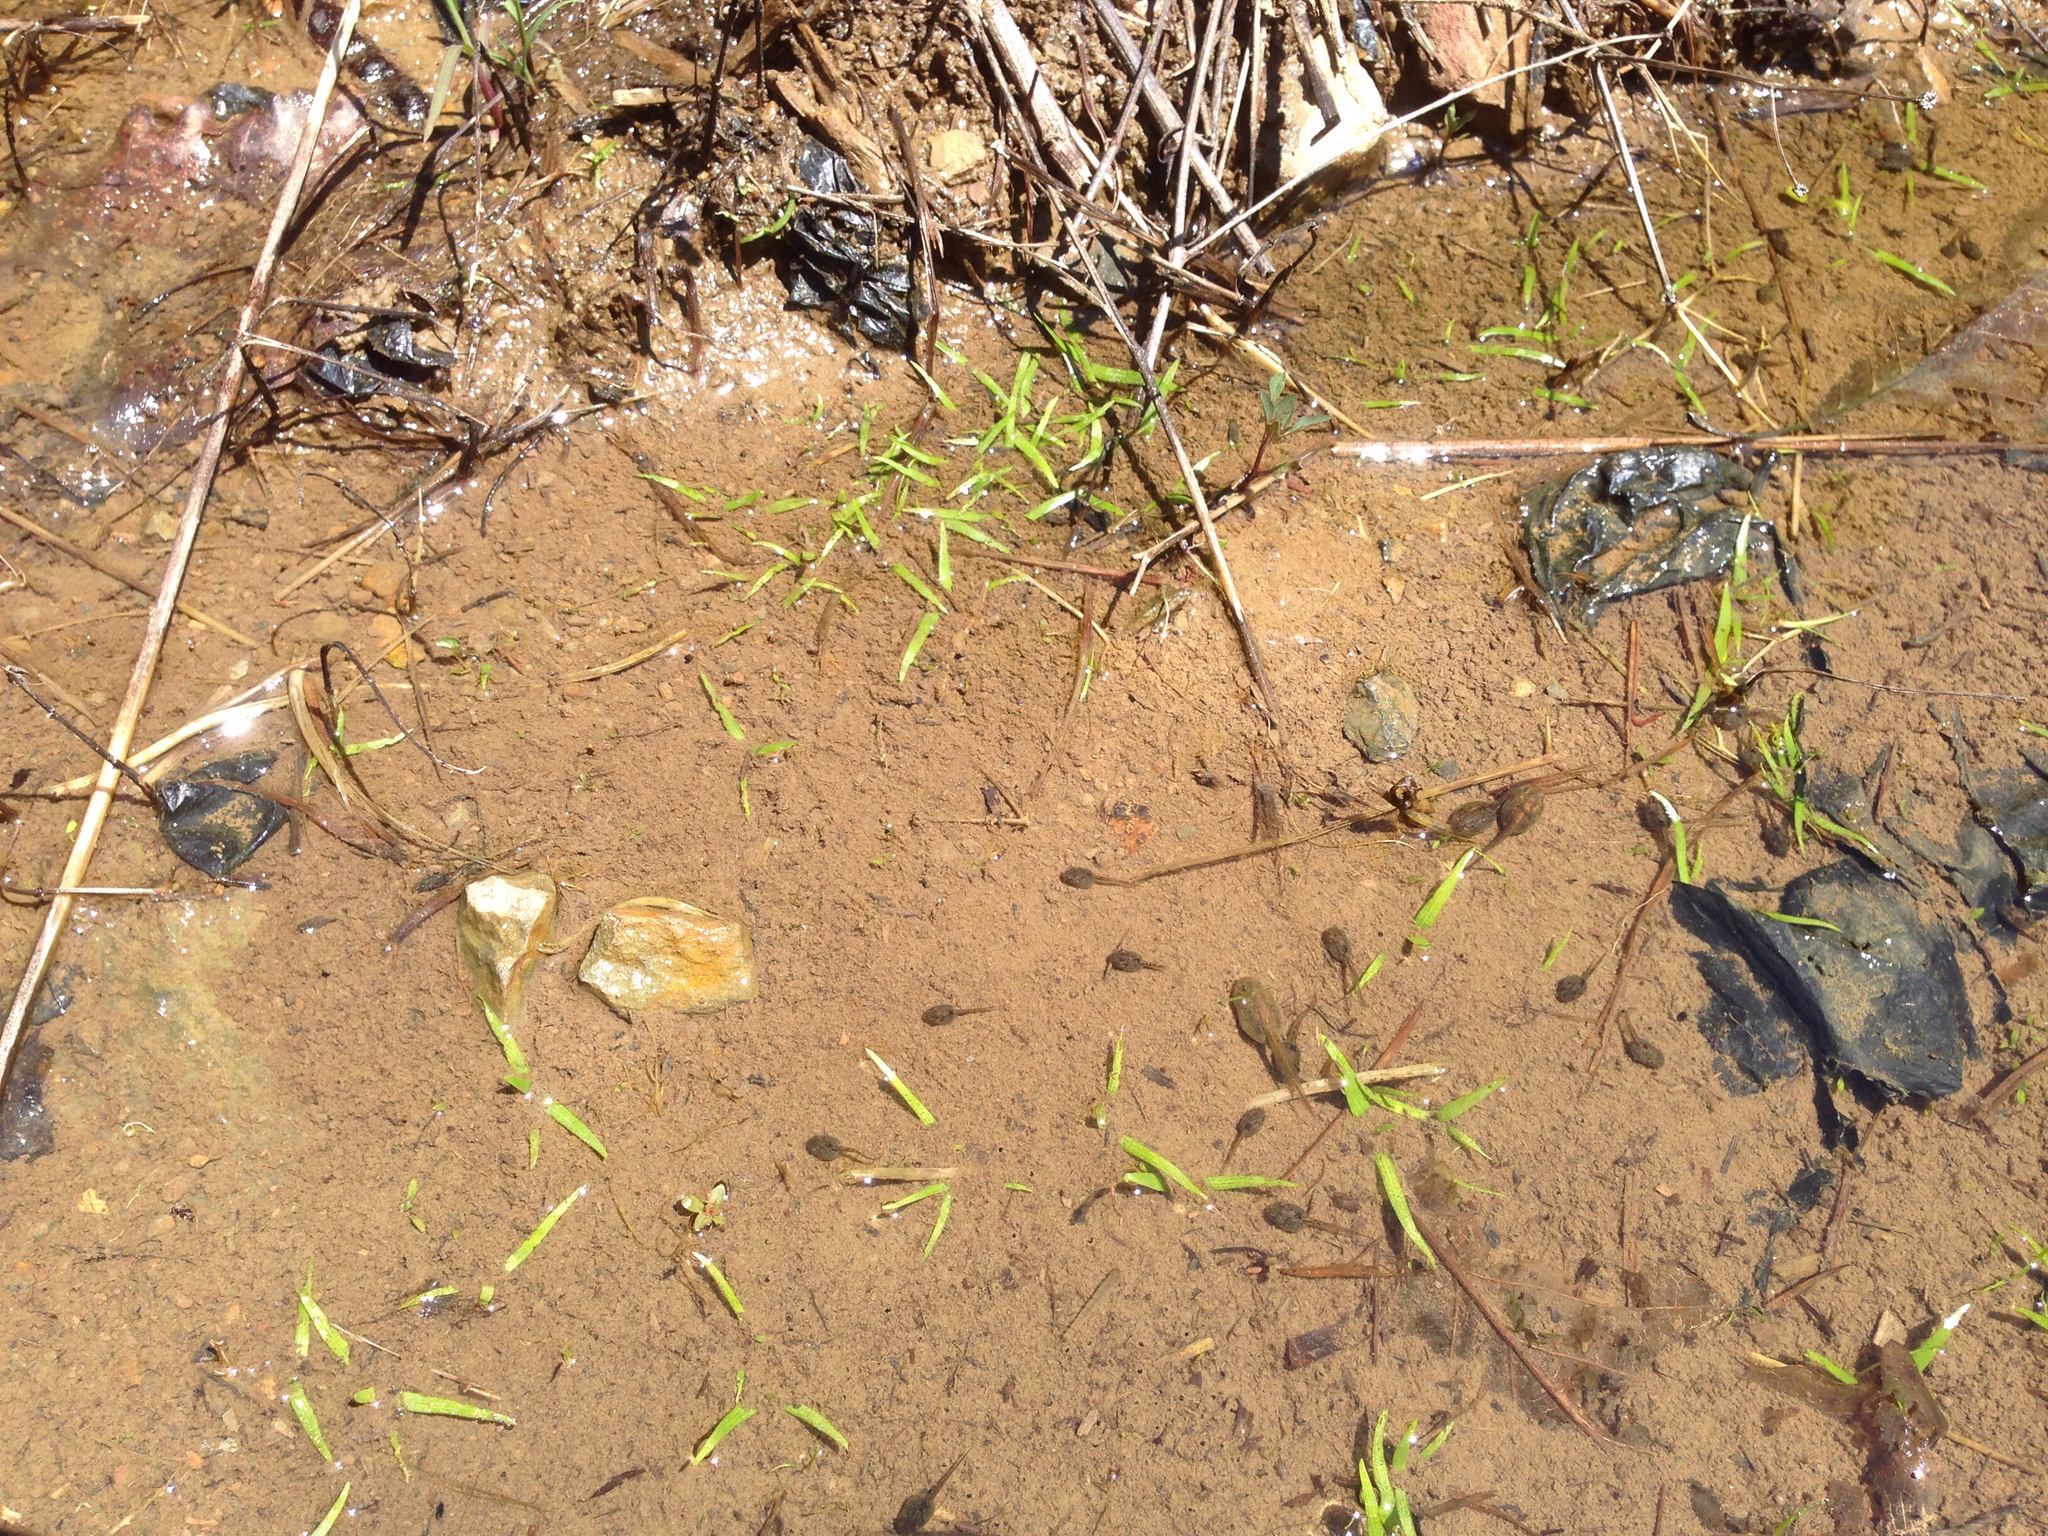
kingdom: Animalia
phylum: Chordata
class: Amphibia
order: Anura
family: Bombinatoridae
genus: Bombina
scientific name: Bombina orientalis
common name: Oriental firebelly toad
